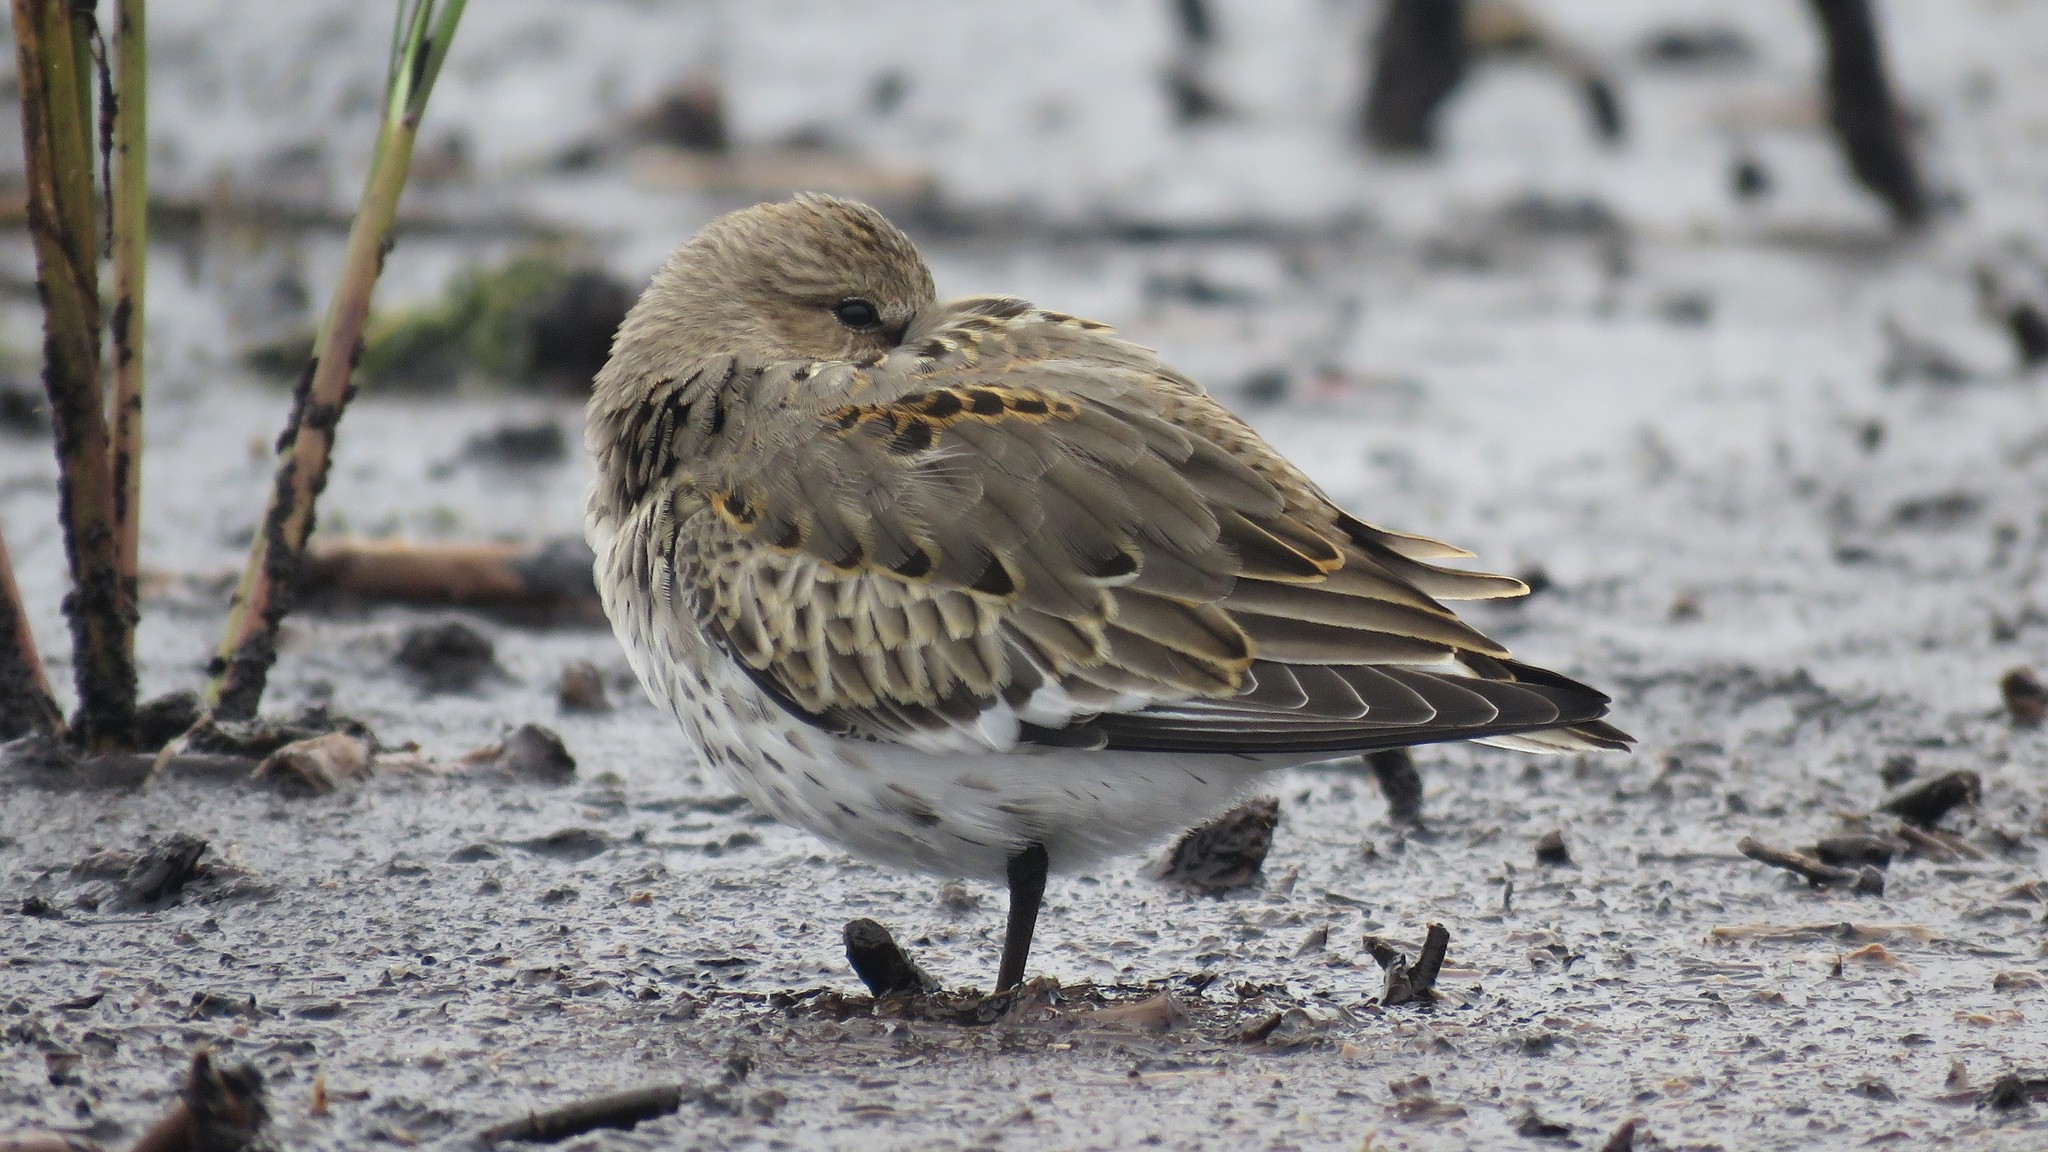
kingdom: Animalia
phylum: Chordata
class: Aves
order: Charadriiformes
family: Scolopacidae
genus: Calidris
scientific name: Calidris alpina
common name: Dunlin
